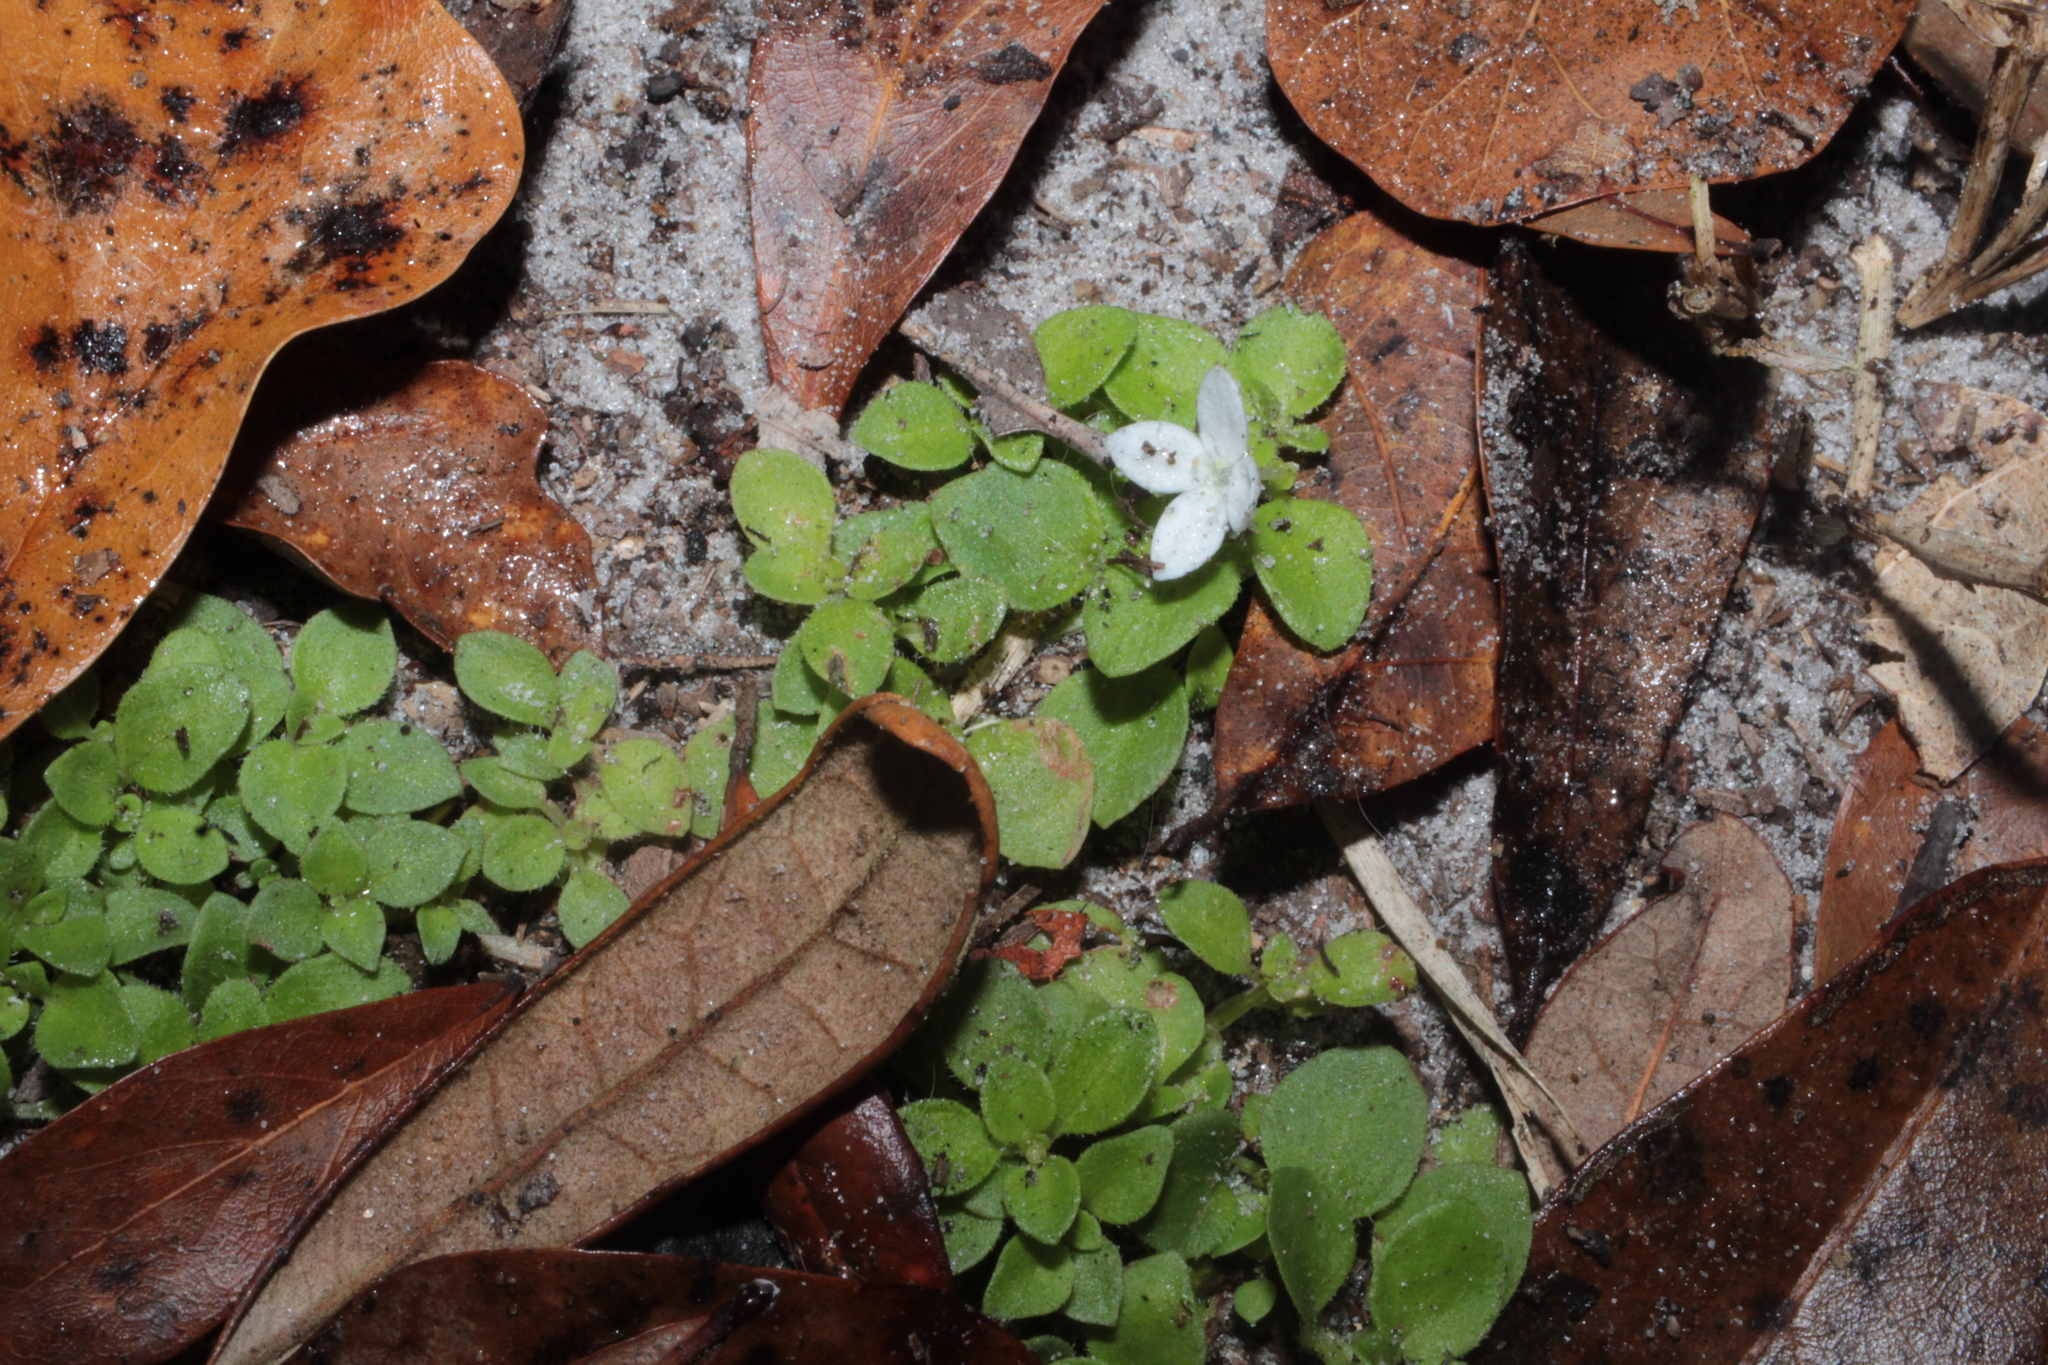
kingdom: Plantae
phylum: Tracheophyta
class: Magnoliopsida
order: Gentianales
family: Rubiaceae
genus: Houstonia
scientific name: Houstonia procumbens
